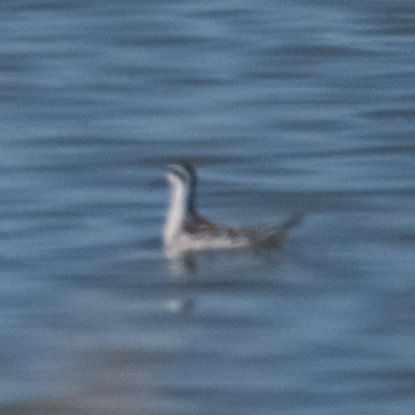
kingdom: Animalia
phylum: Chordata
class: Aves
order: Charadriiformes
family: Scolopacidae
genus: Phalaropus
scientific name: Phalaropus lobatus
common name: Red-necked phalarope
